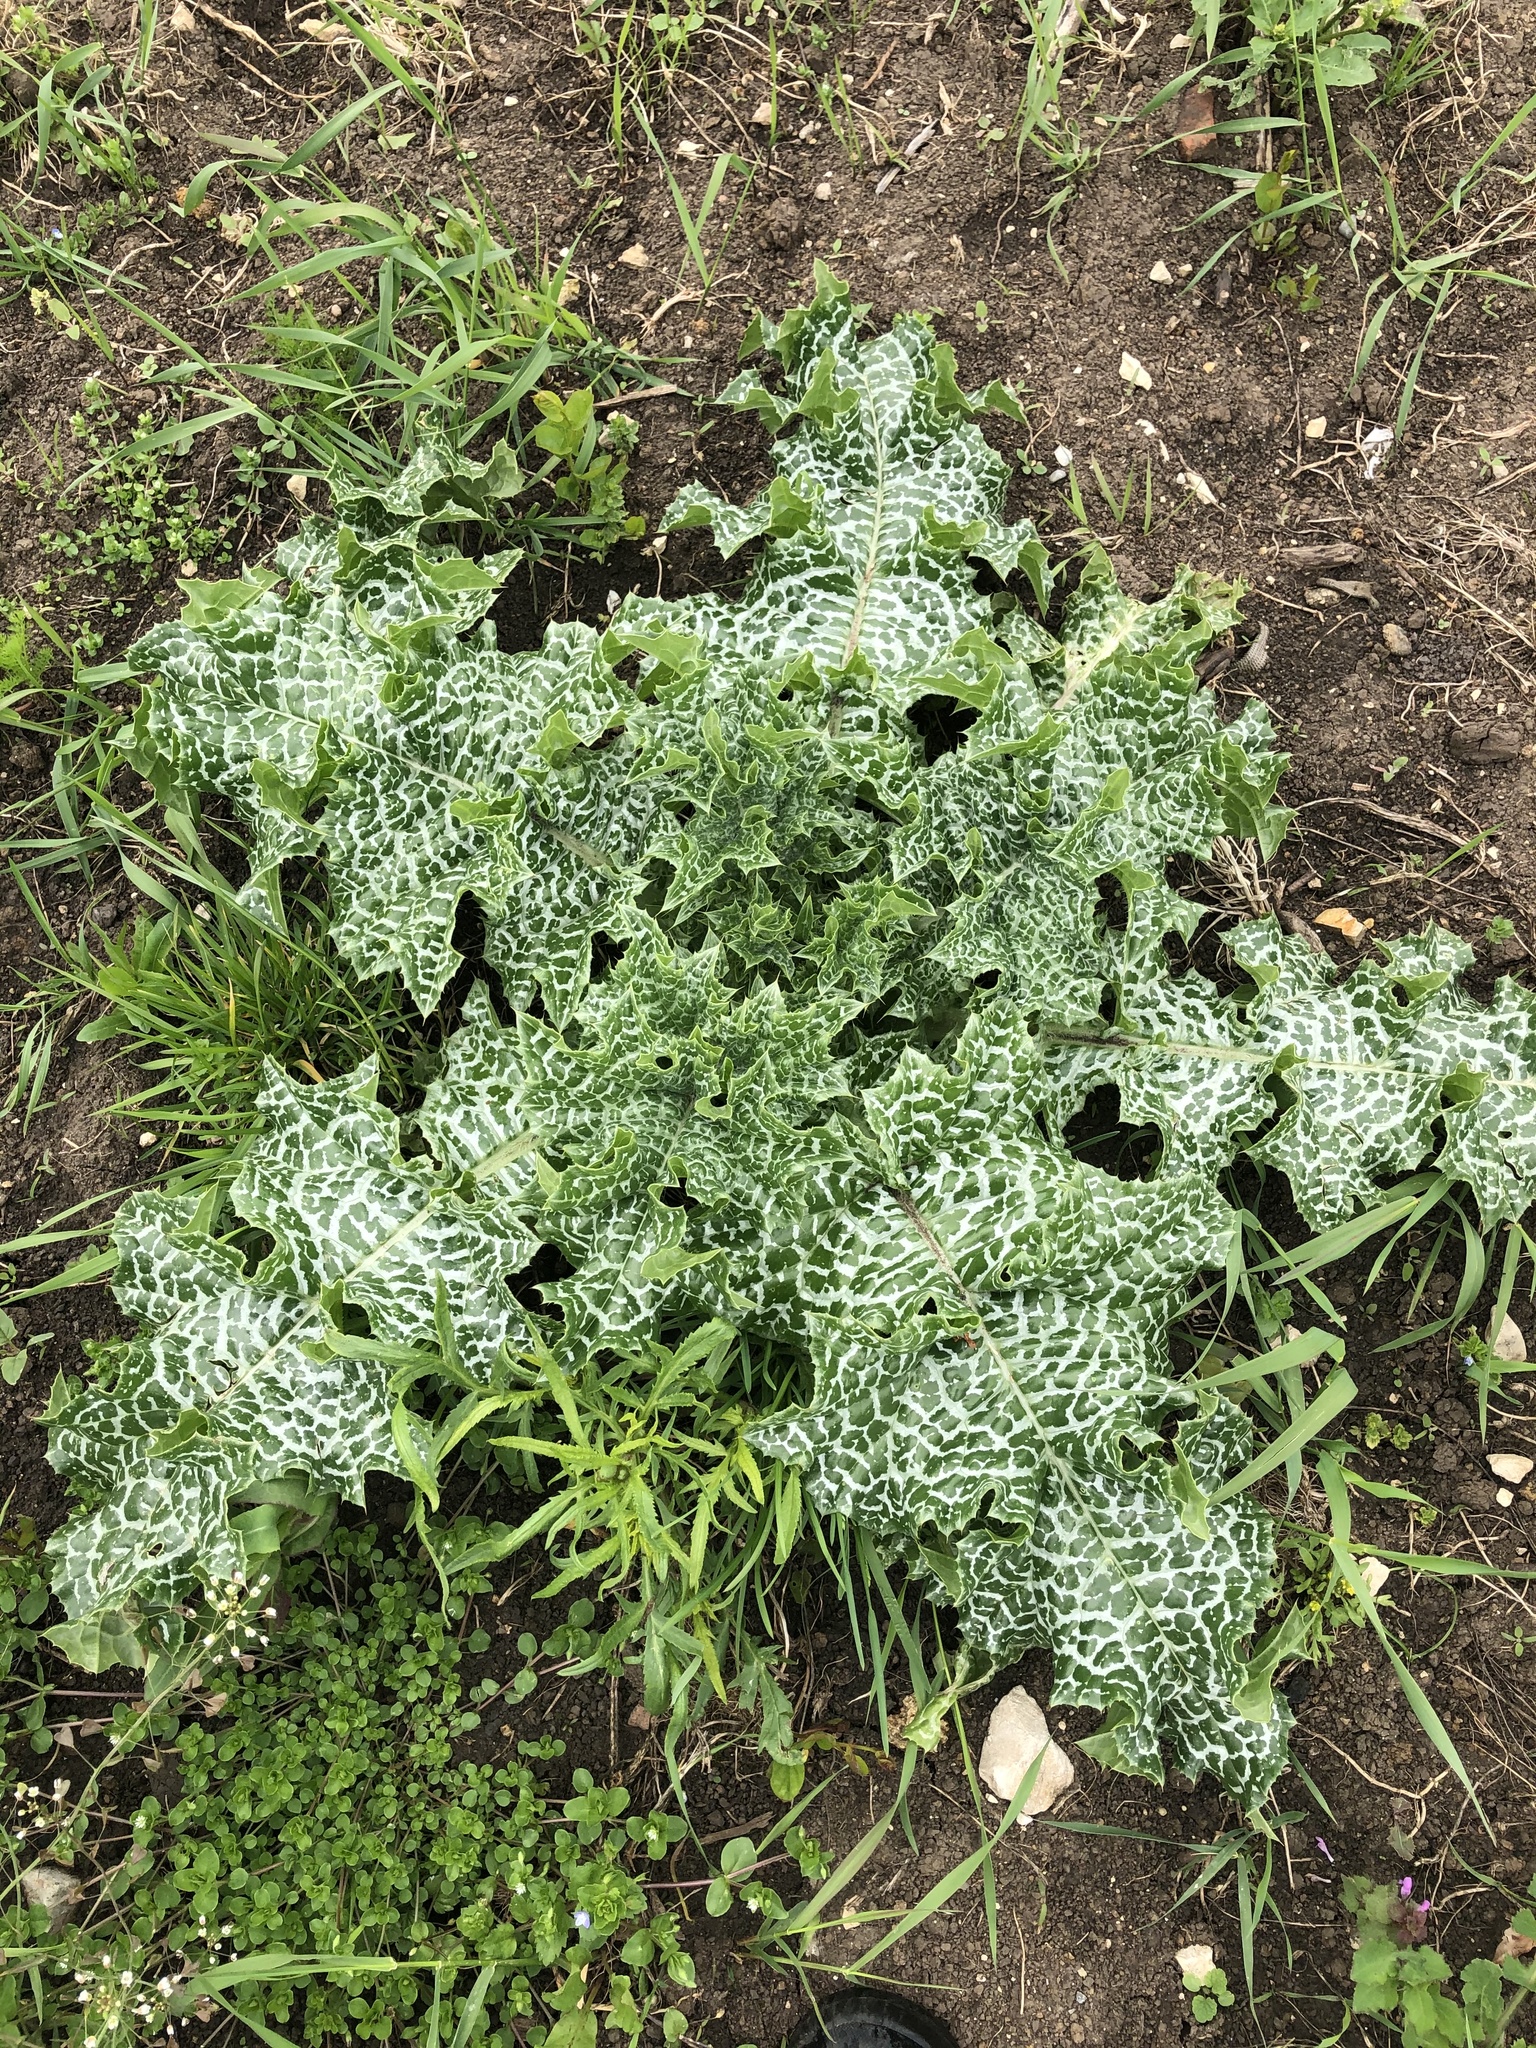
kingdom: Plantae
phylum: Tracheophyta
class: Magnoliopsida
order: Asterales
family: Asteraceae
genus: Silybum
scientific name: Silybum marianum
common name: Milk thistle
